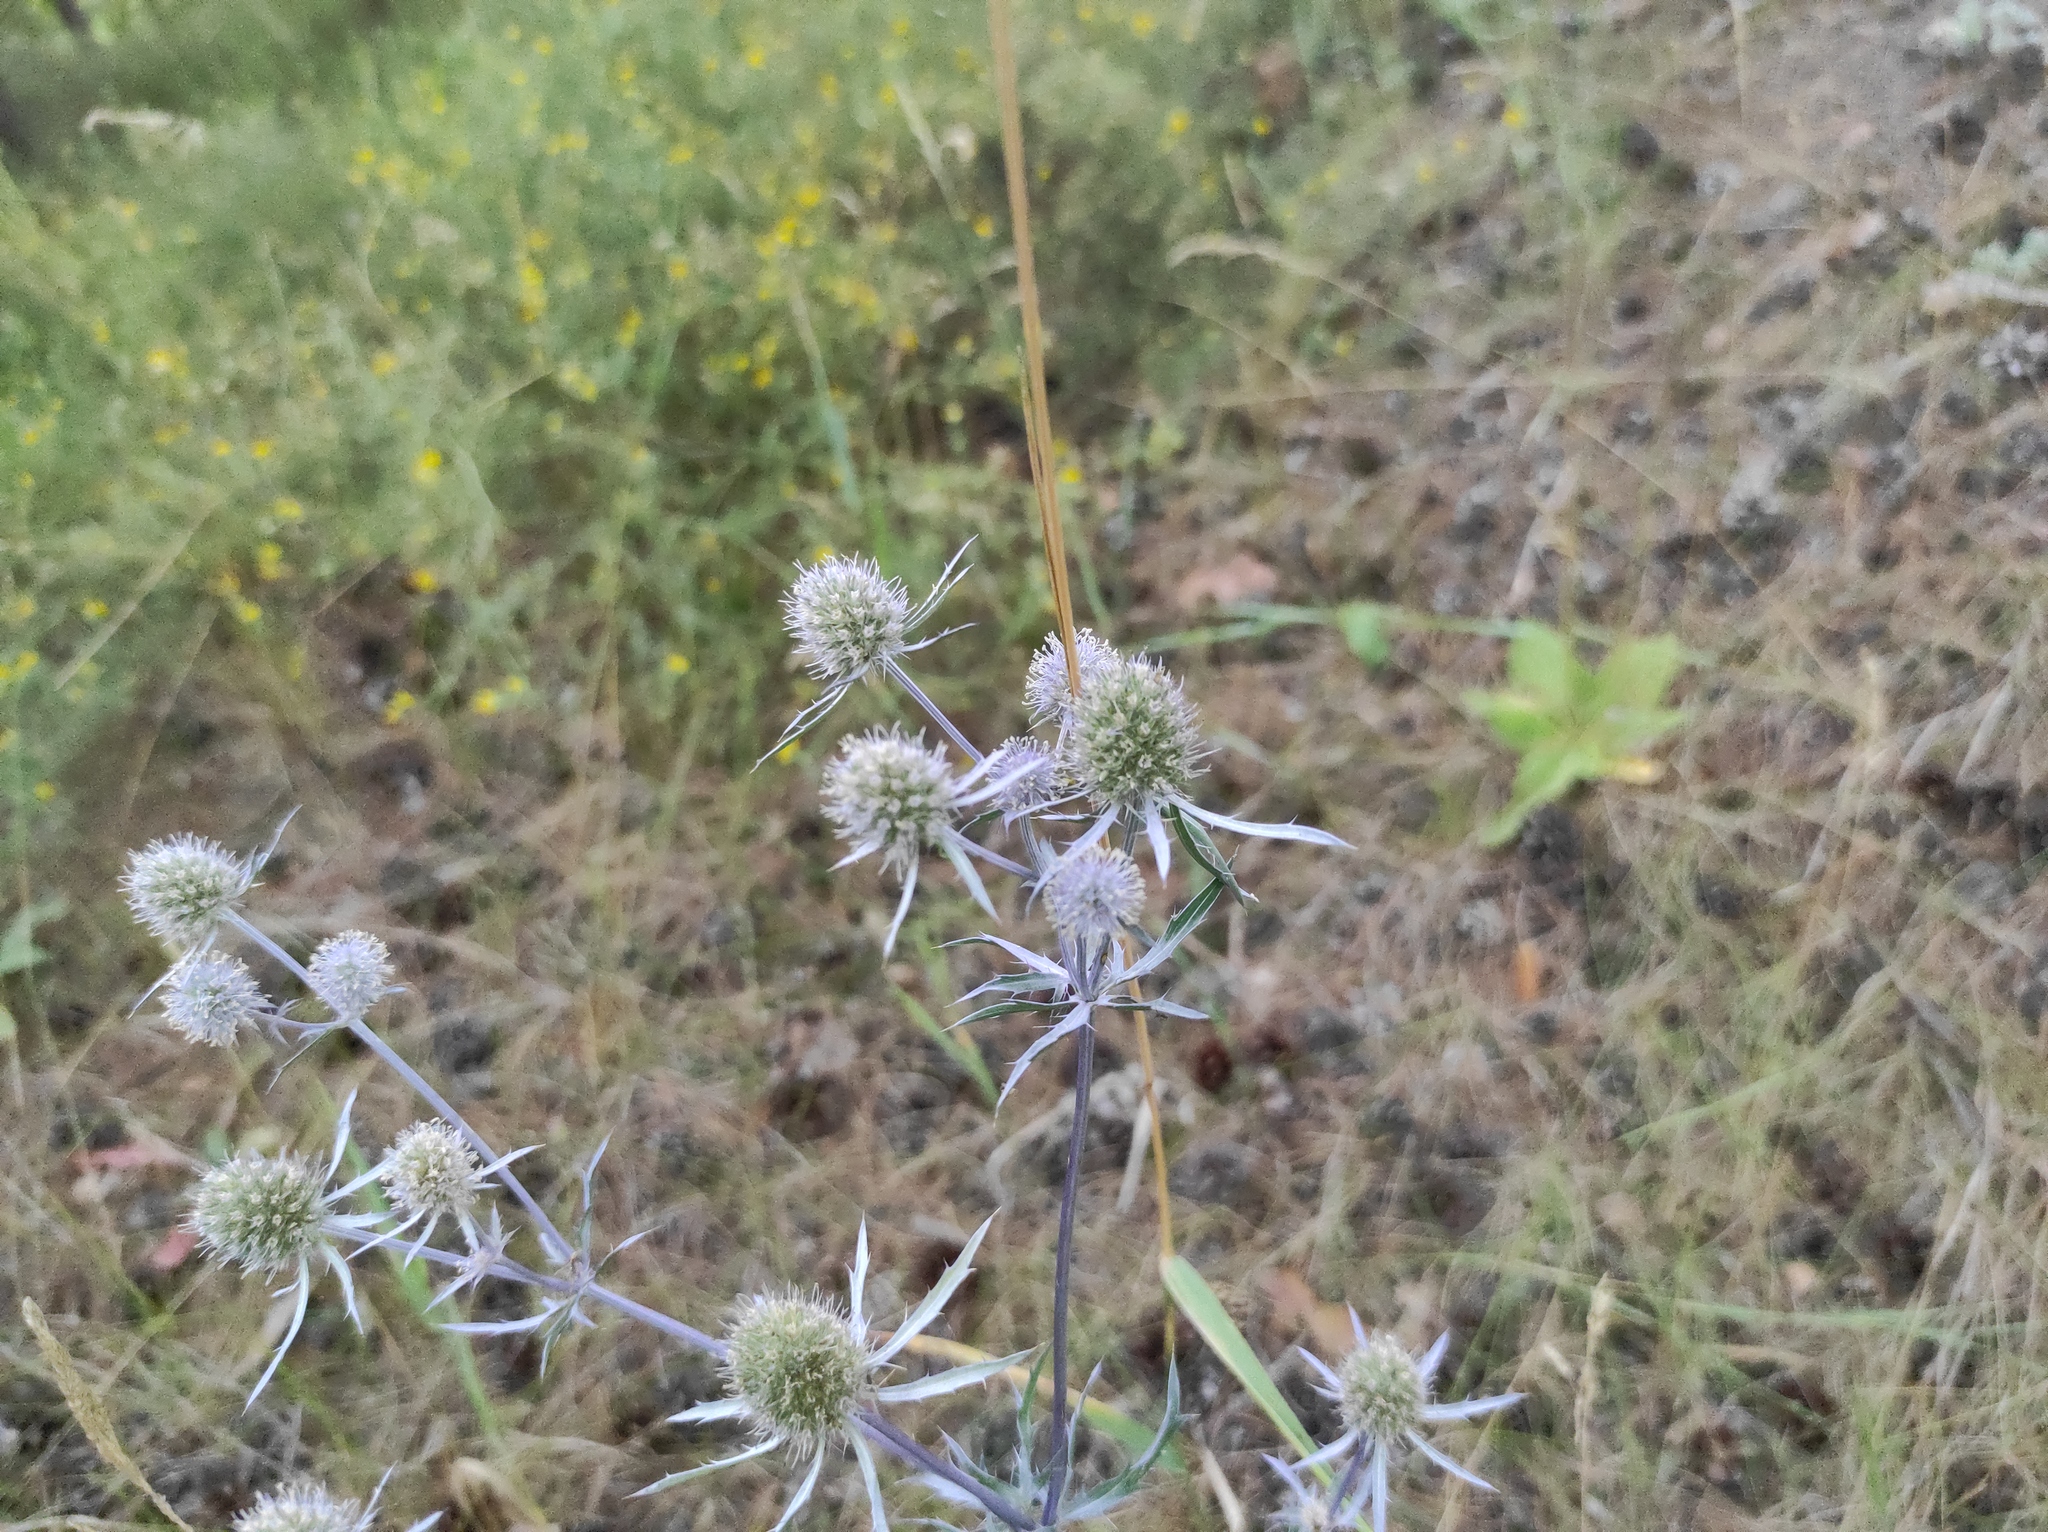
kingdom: Plantae
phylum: Tracheophyta
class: Magnoliopsida
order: Apiales
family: Apiaceae
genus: Eryngium
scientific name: Eryngium planum
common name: Blue eryngo
